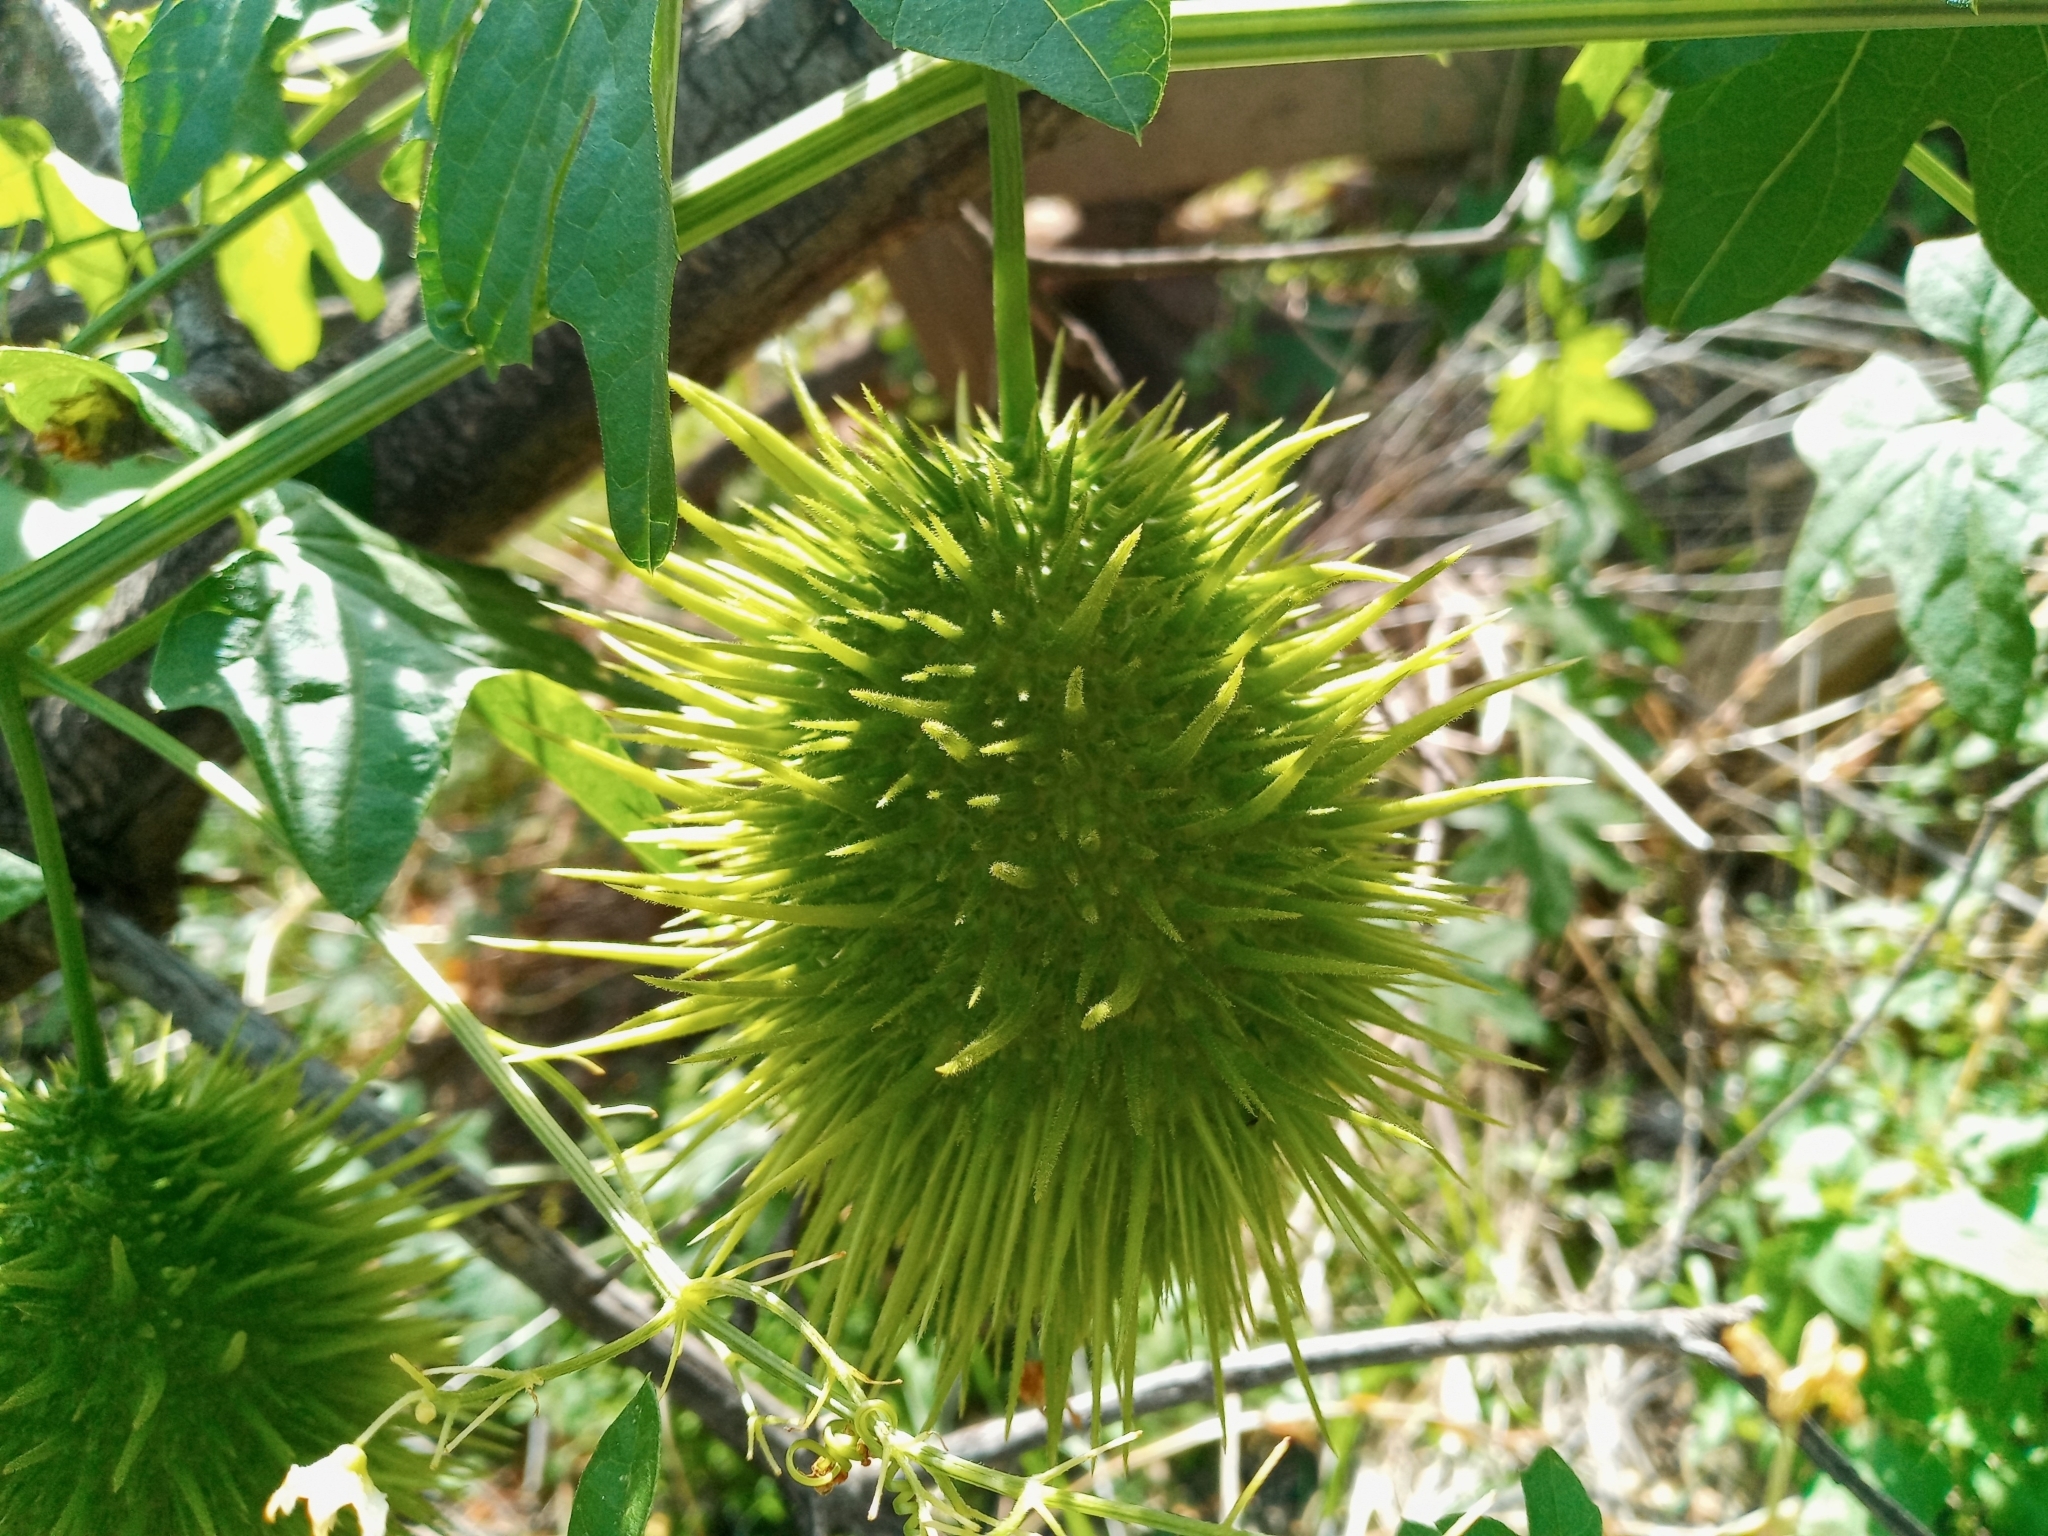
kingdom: Plantae
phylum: Tracheophyta
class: Magnoliopsida
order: Cucurbitales
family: Cucurbitaceae
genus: Marah
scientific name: Marah macrocarpa
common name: Cucamonga manroot
